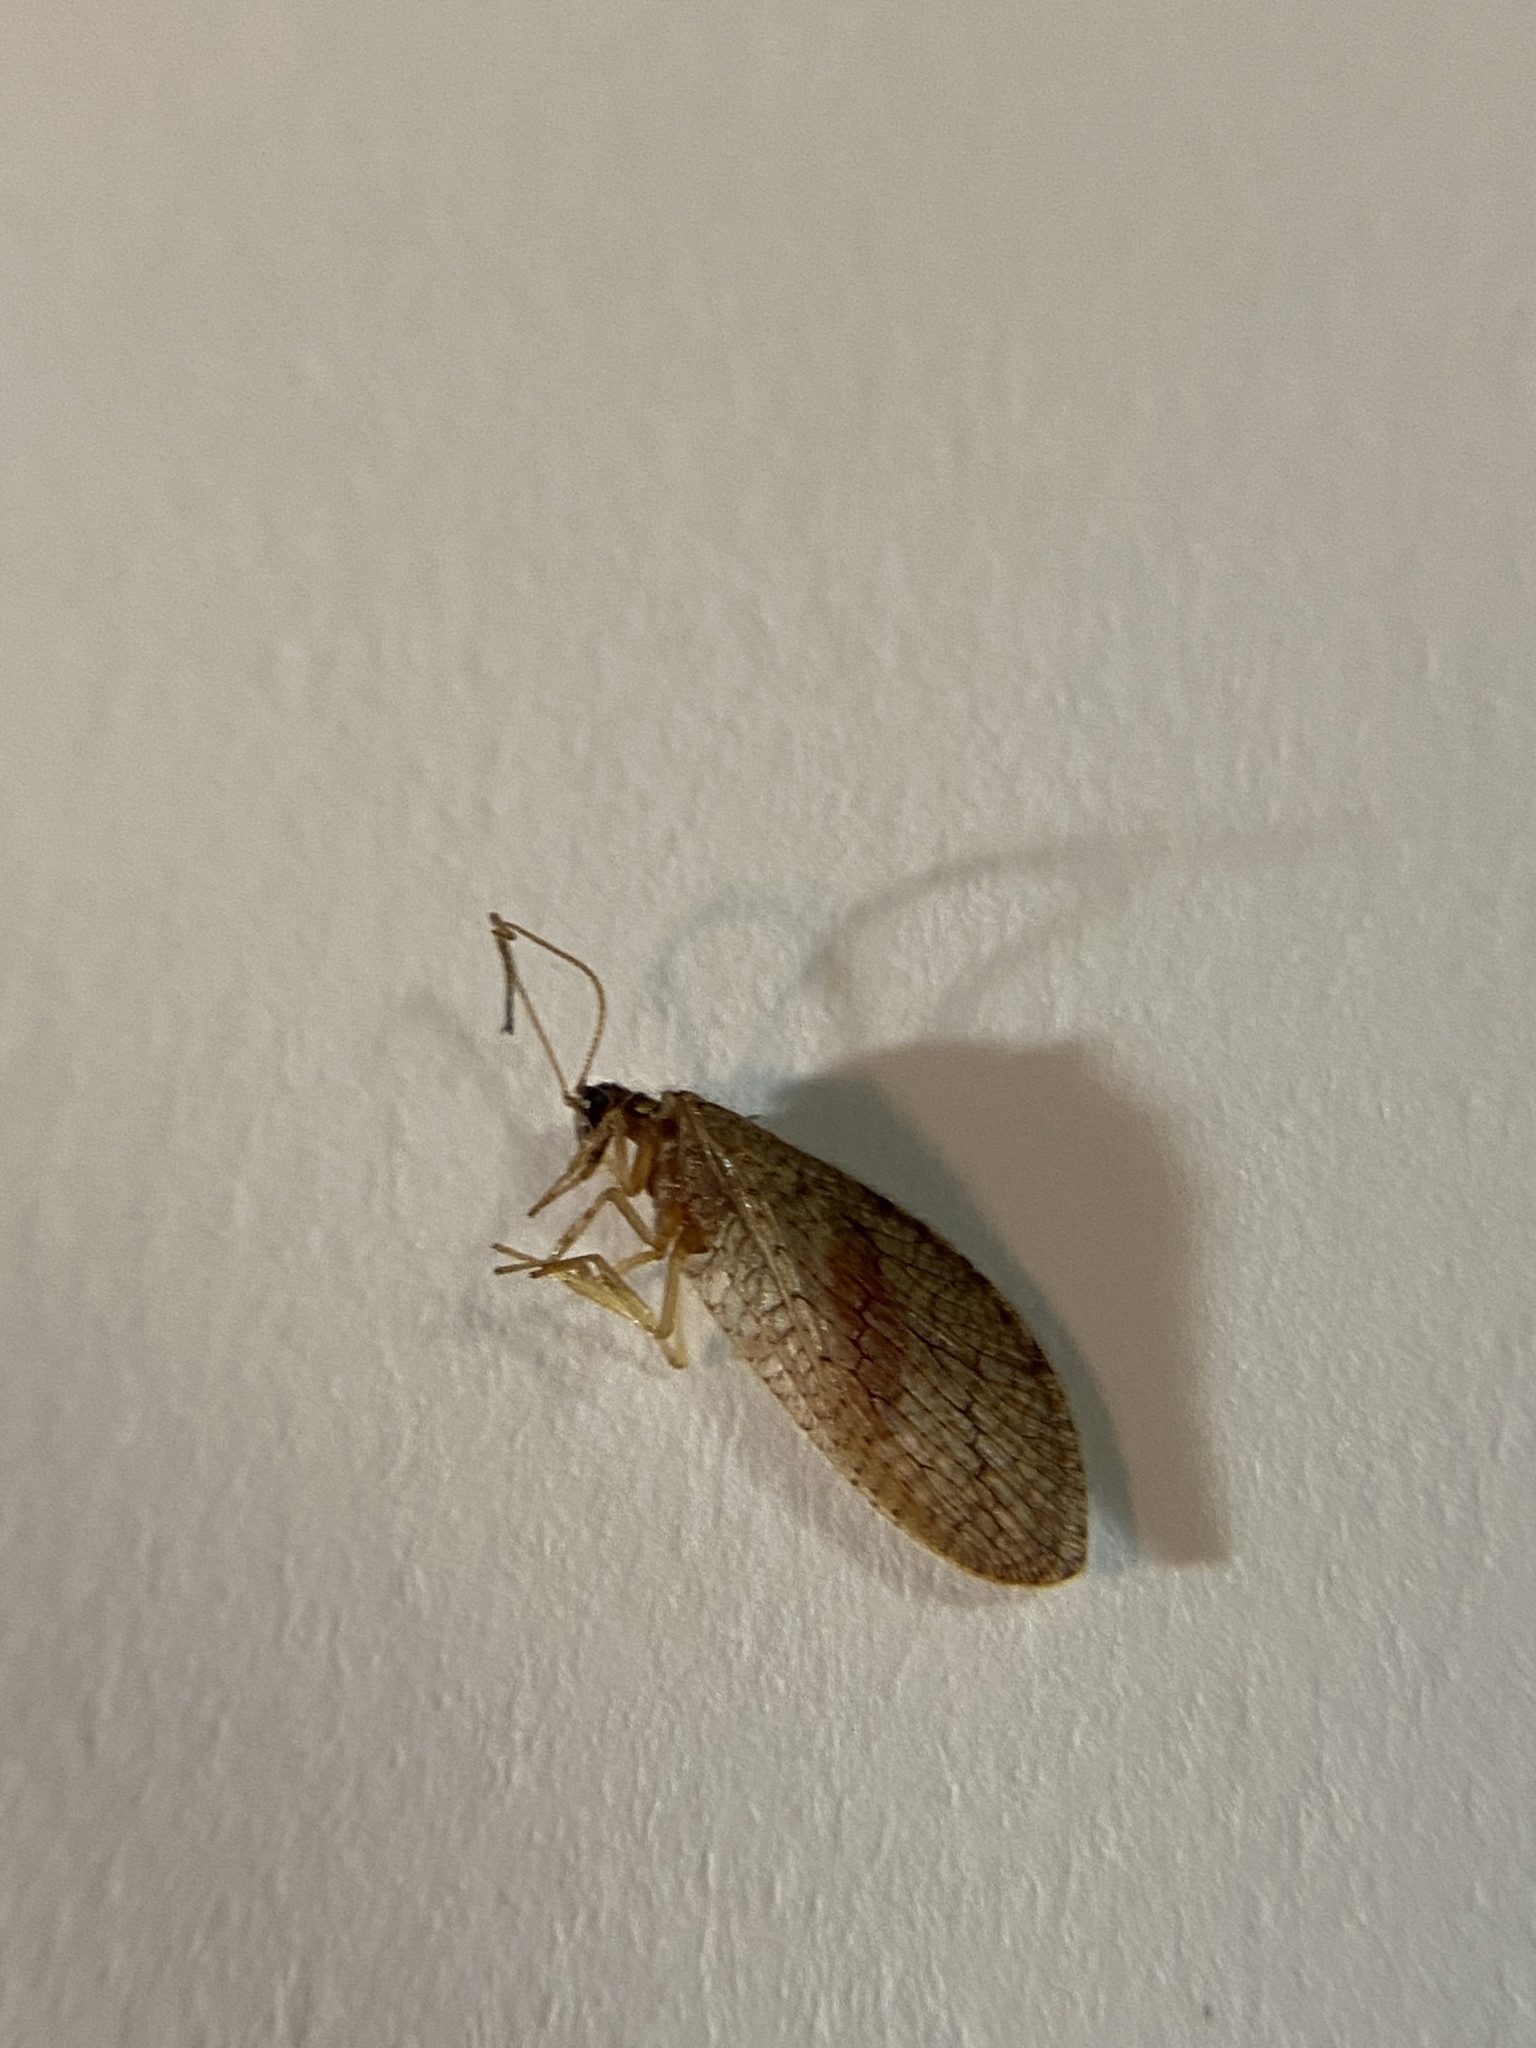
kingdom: Animalia
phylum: Arthropoda
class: Insecta
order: Neuroptera
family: Hemerobiidae
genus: Micromus
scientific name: Micromus posticus
